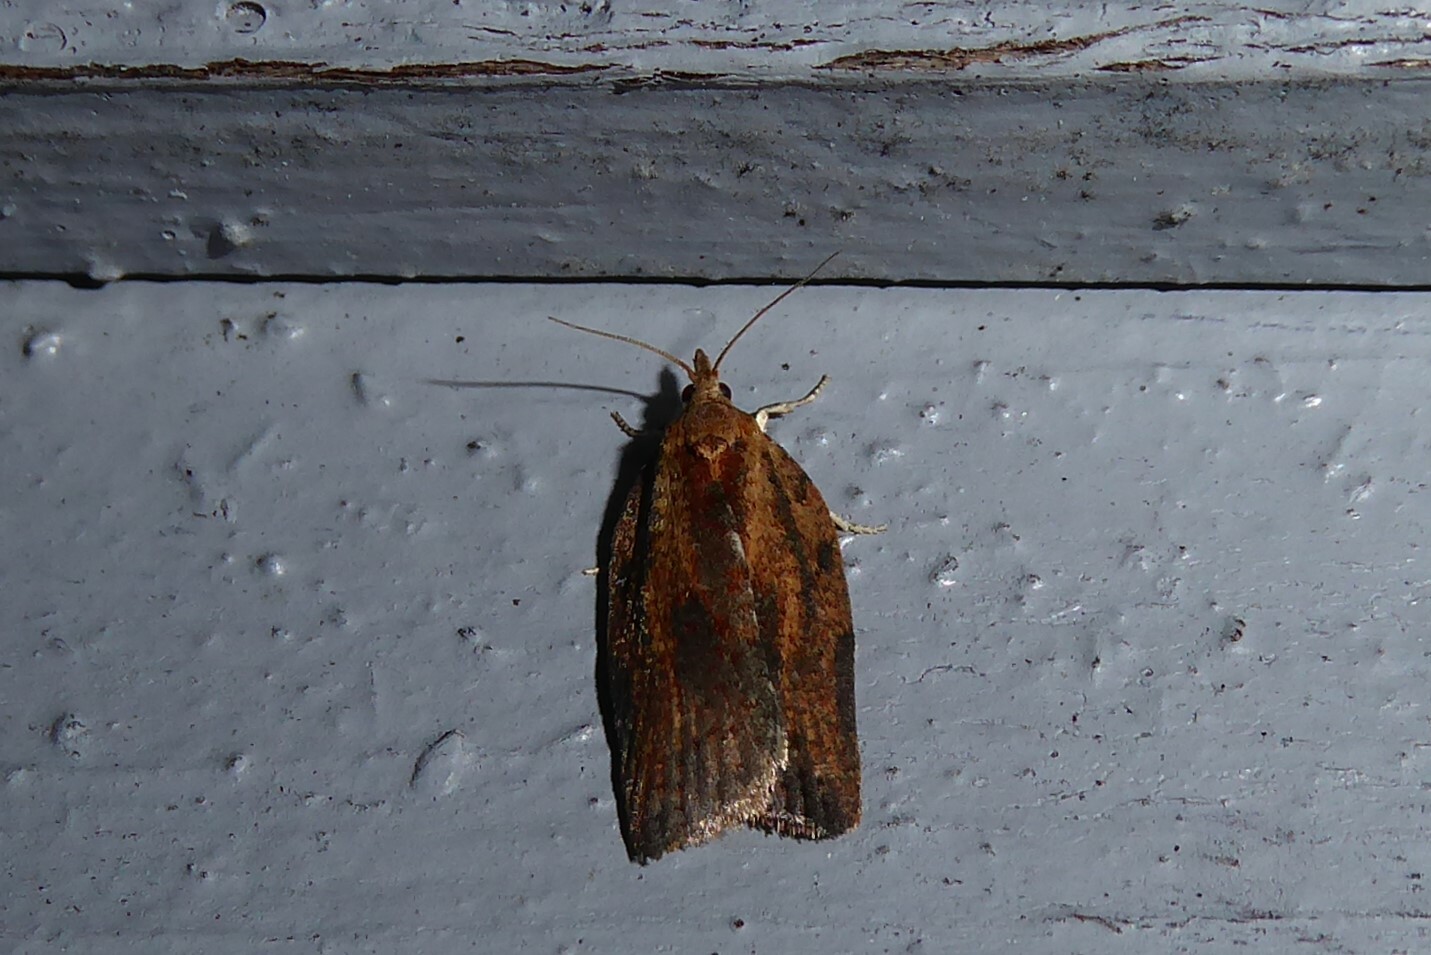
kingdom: Animalia
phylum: Arthropoda
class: Insecta
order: Lepidoptera
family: Tortricidae
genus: Epiphyas
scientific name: Epiphyas postvittana
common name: Light brown apple moth
